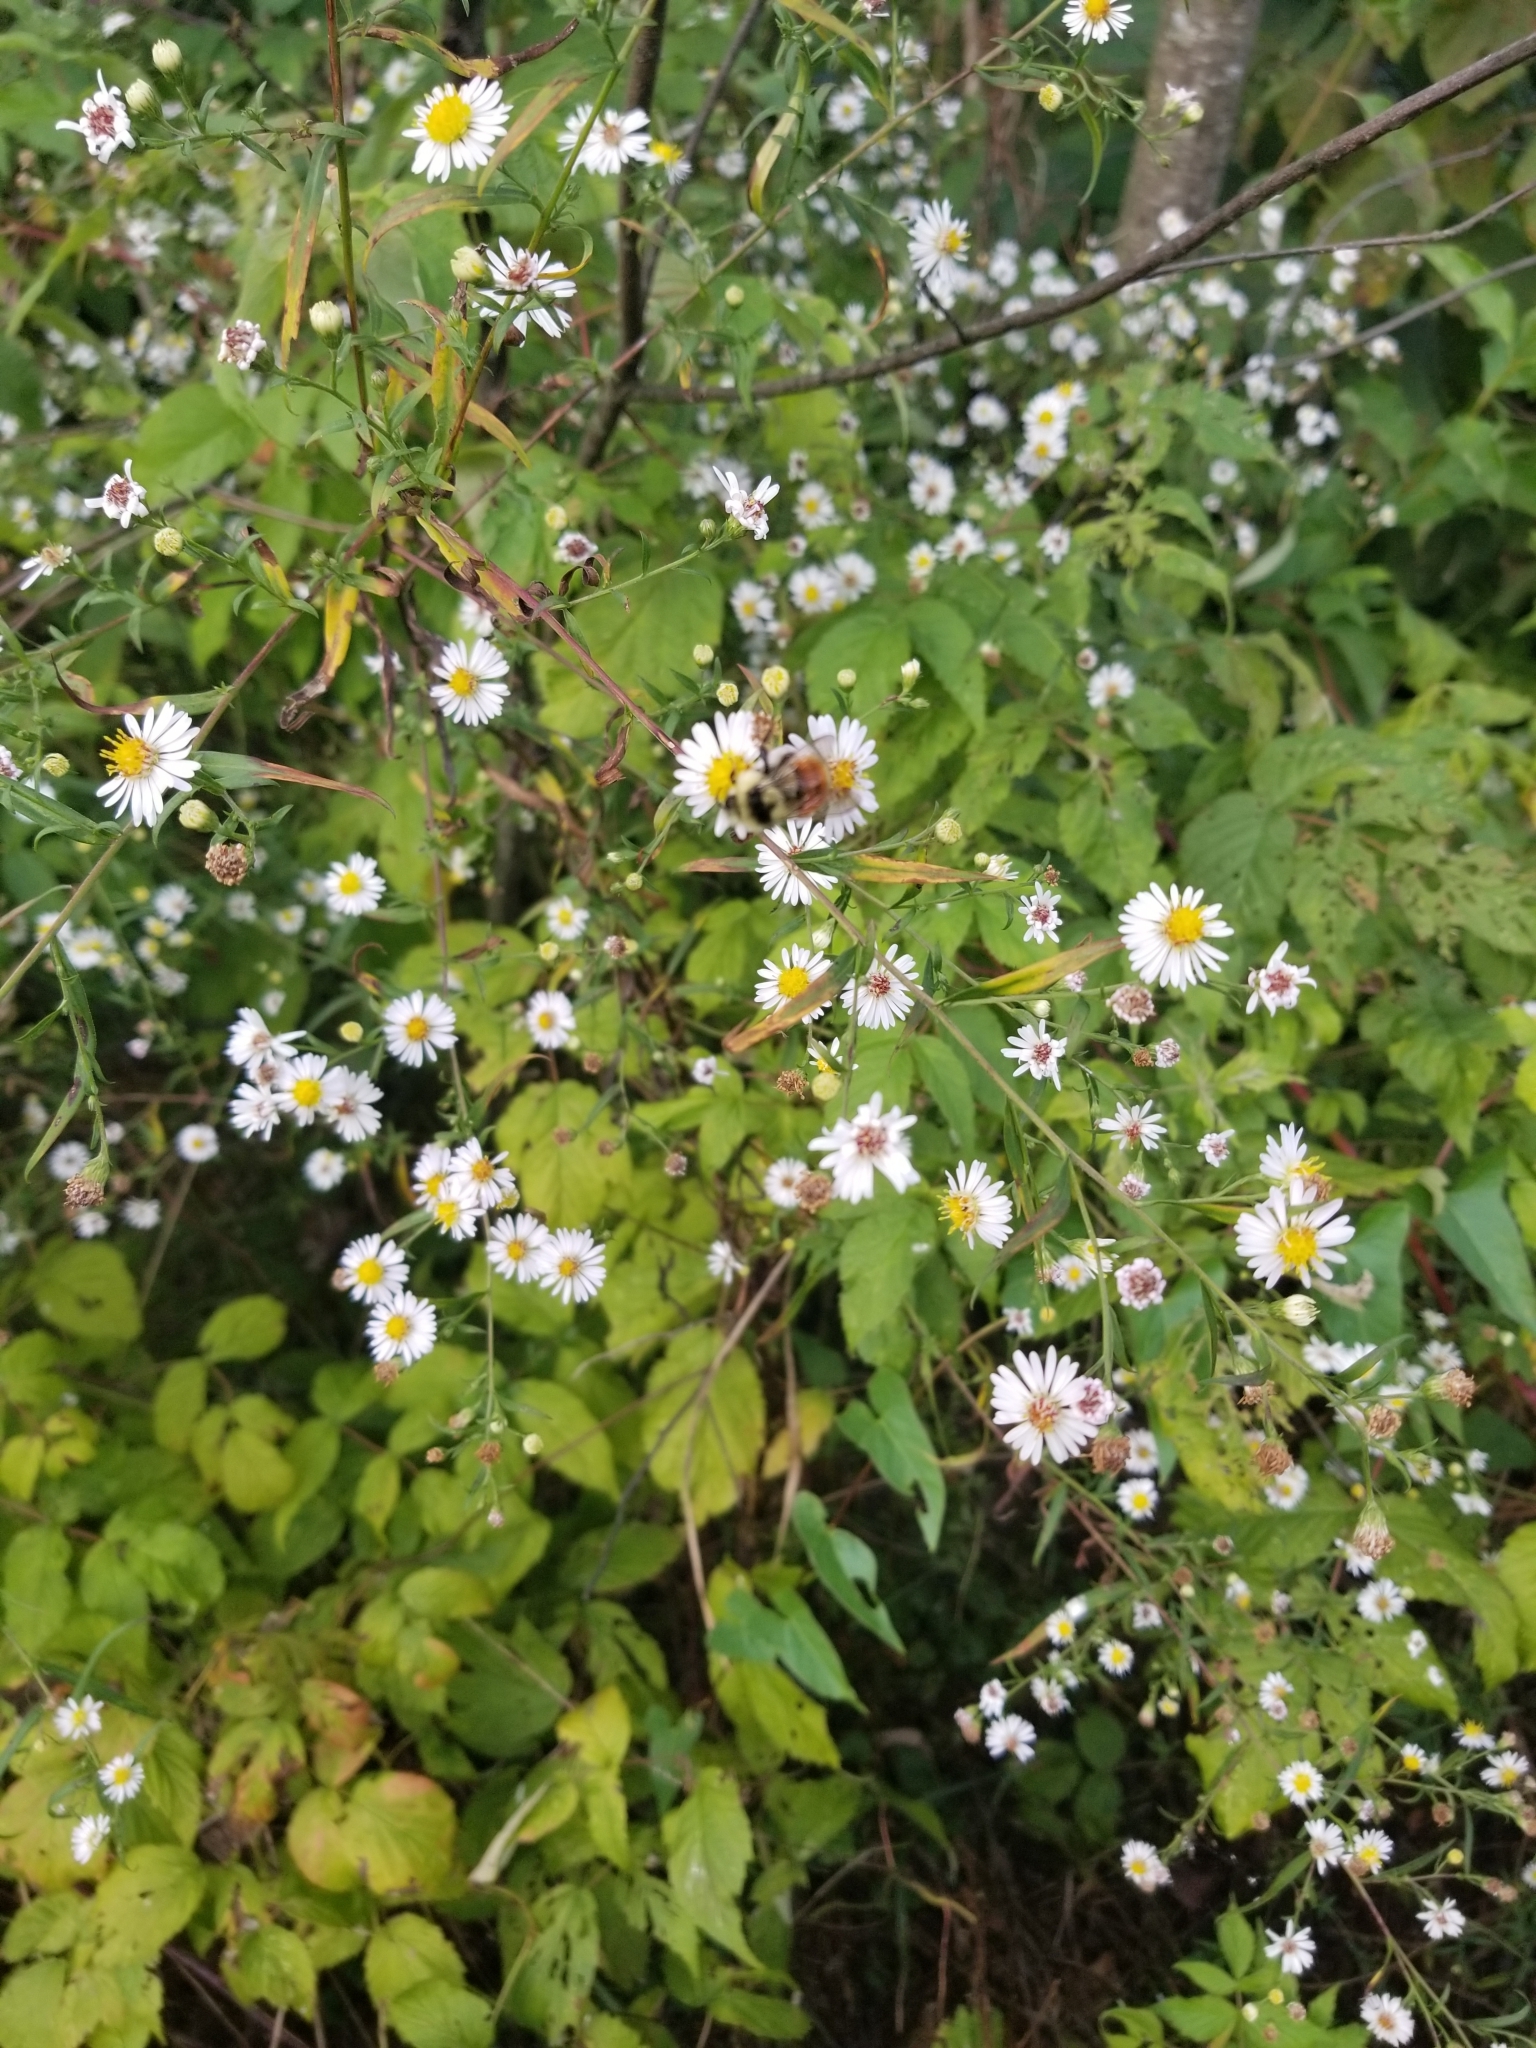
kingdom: Animalia
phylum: Arthropoda
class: Insecta
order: Hymenoptera
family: Apidae
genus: Bombus
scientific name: Bombus ternarius
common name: Tri-colored bumble bee
